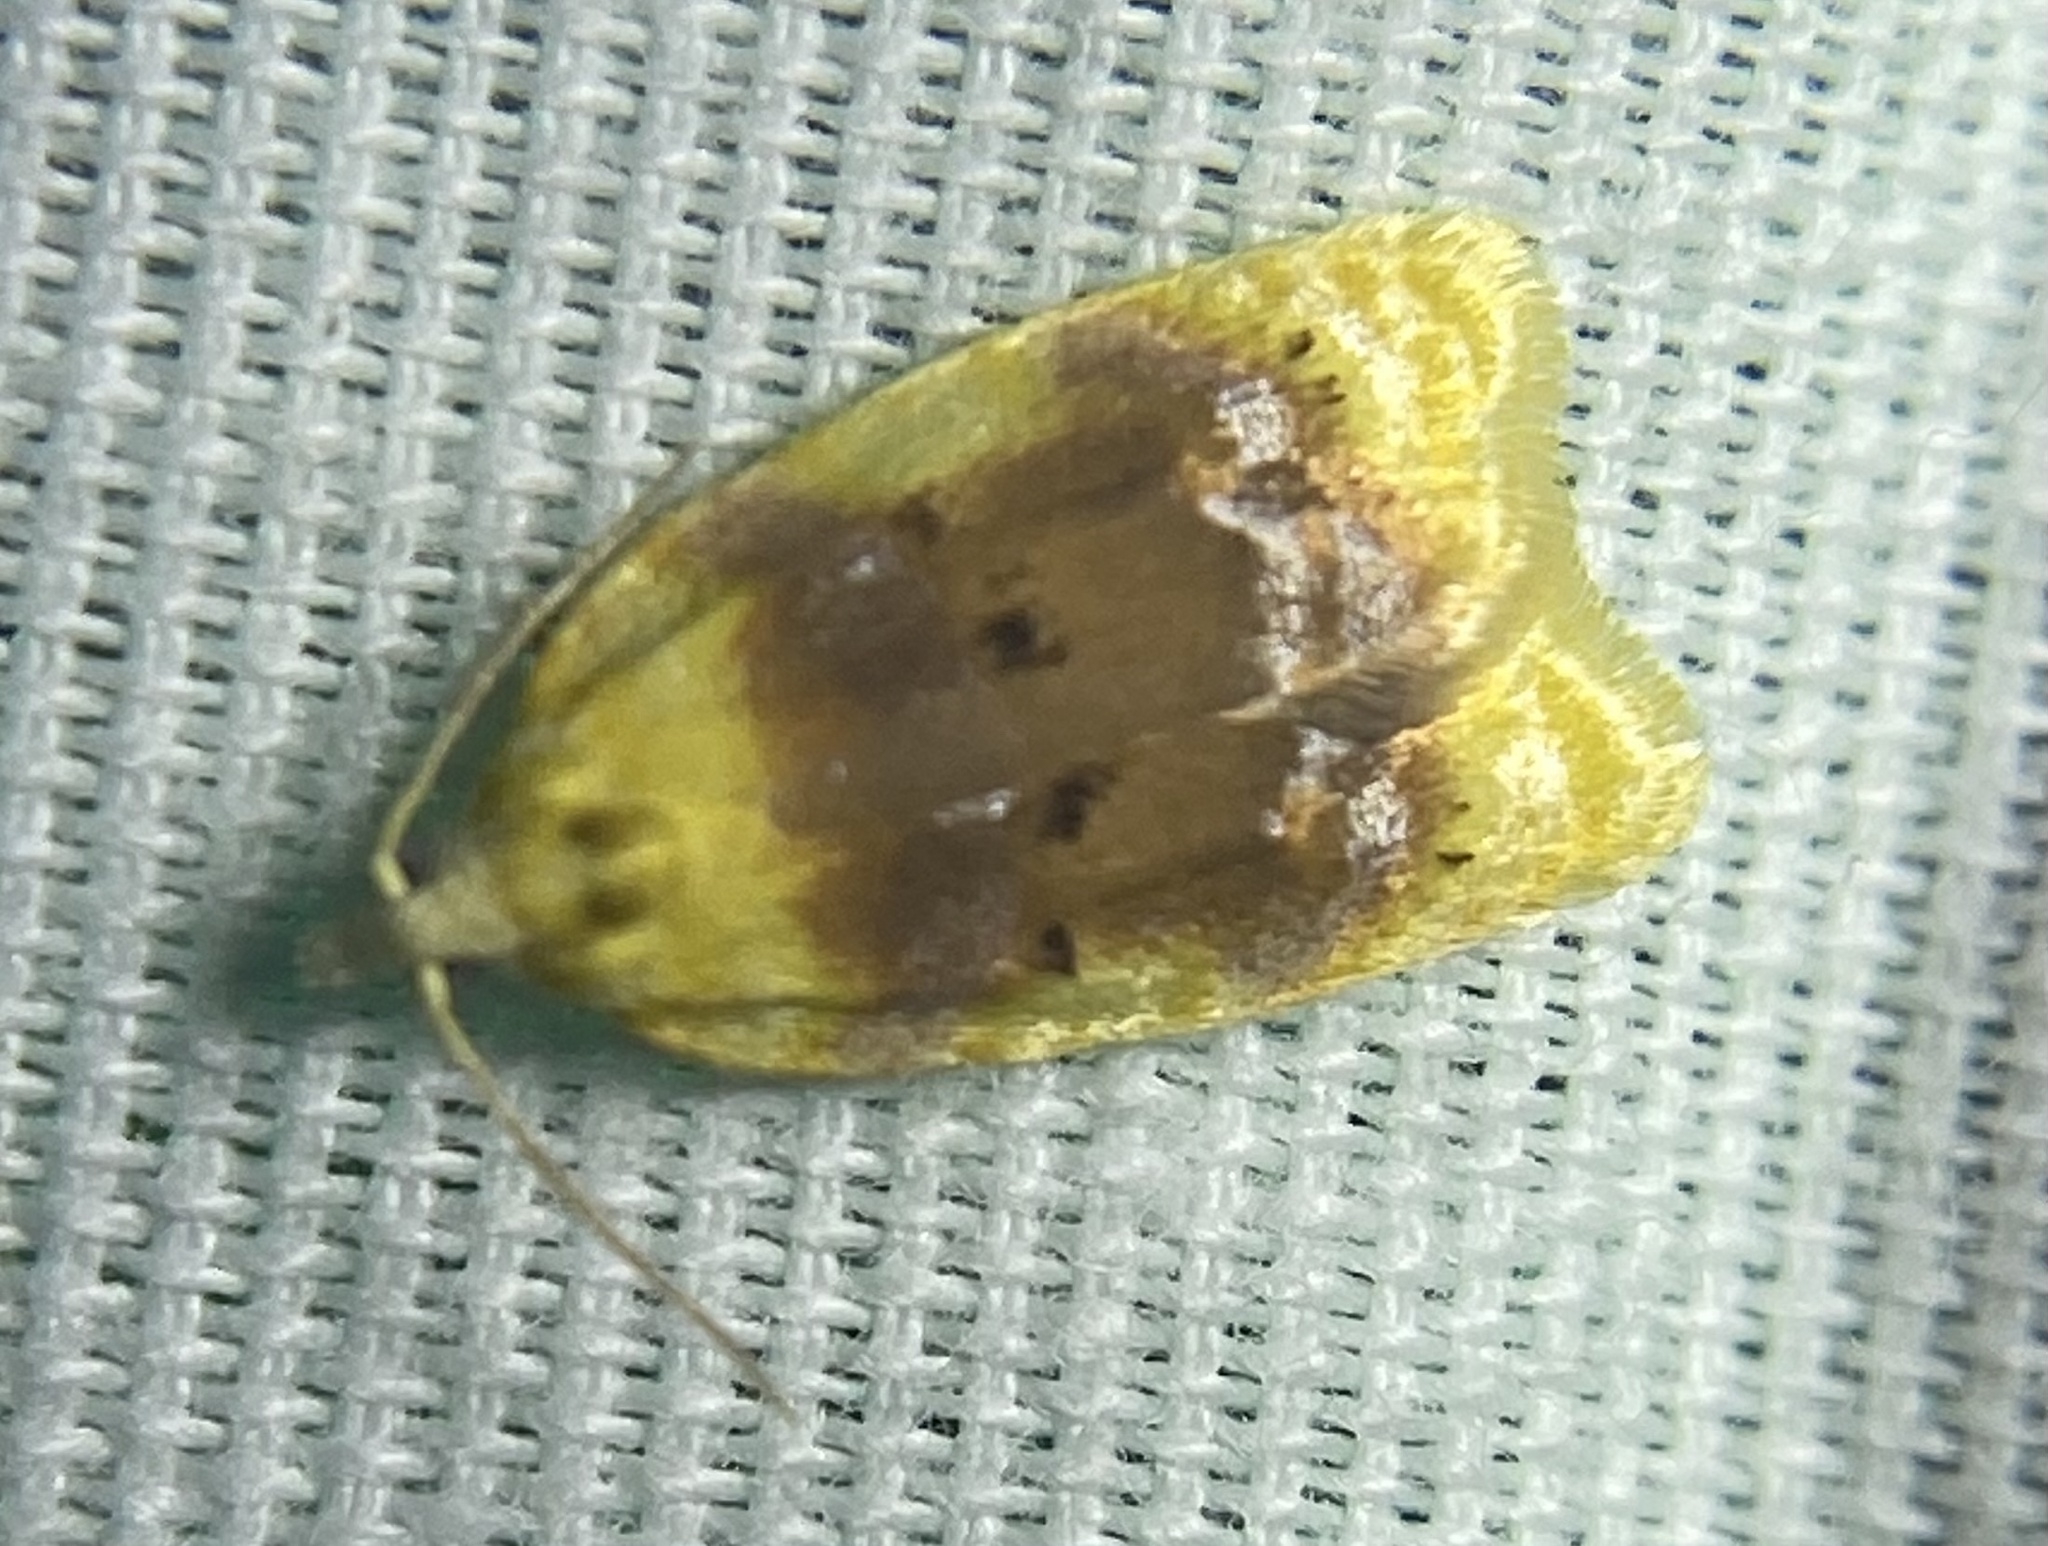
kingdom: Animalia
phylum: Arthropoda
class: Insecta
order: Lepidoptera
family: Tortricidae
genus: Acleris
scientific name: Acleris semipurpurana
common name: Oak leaftier moth
